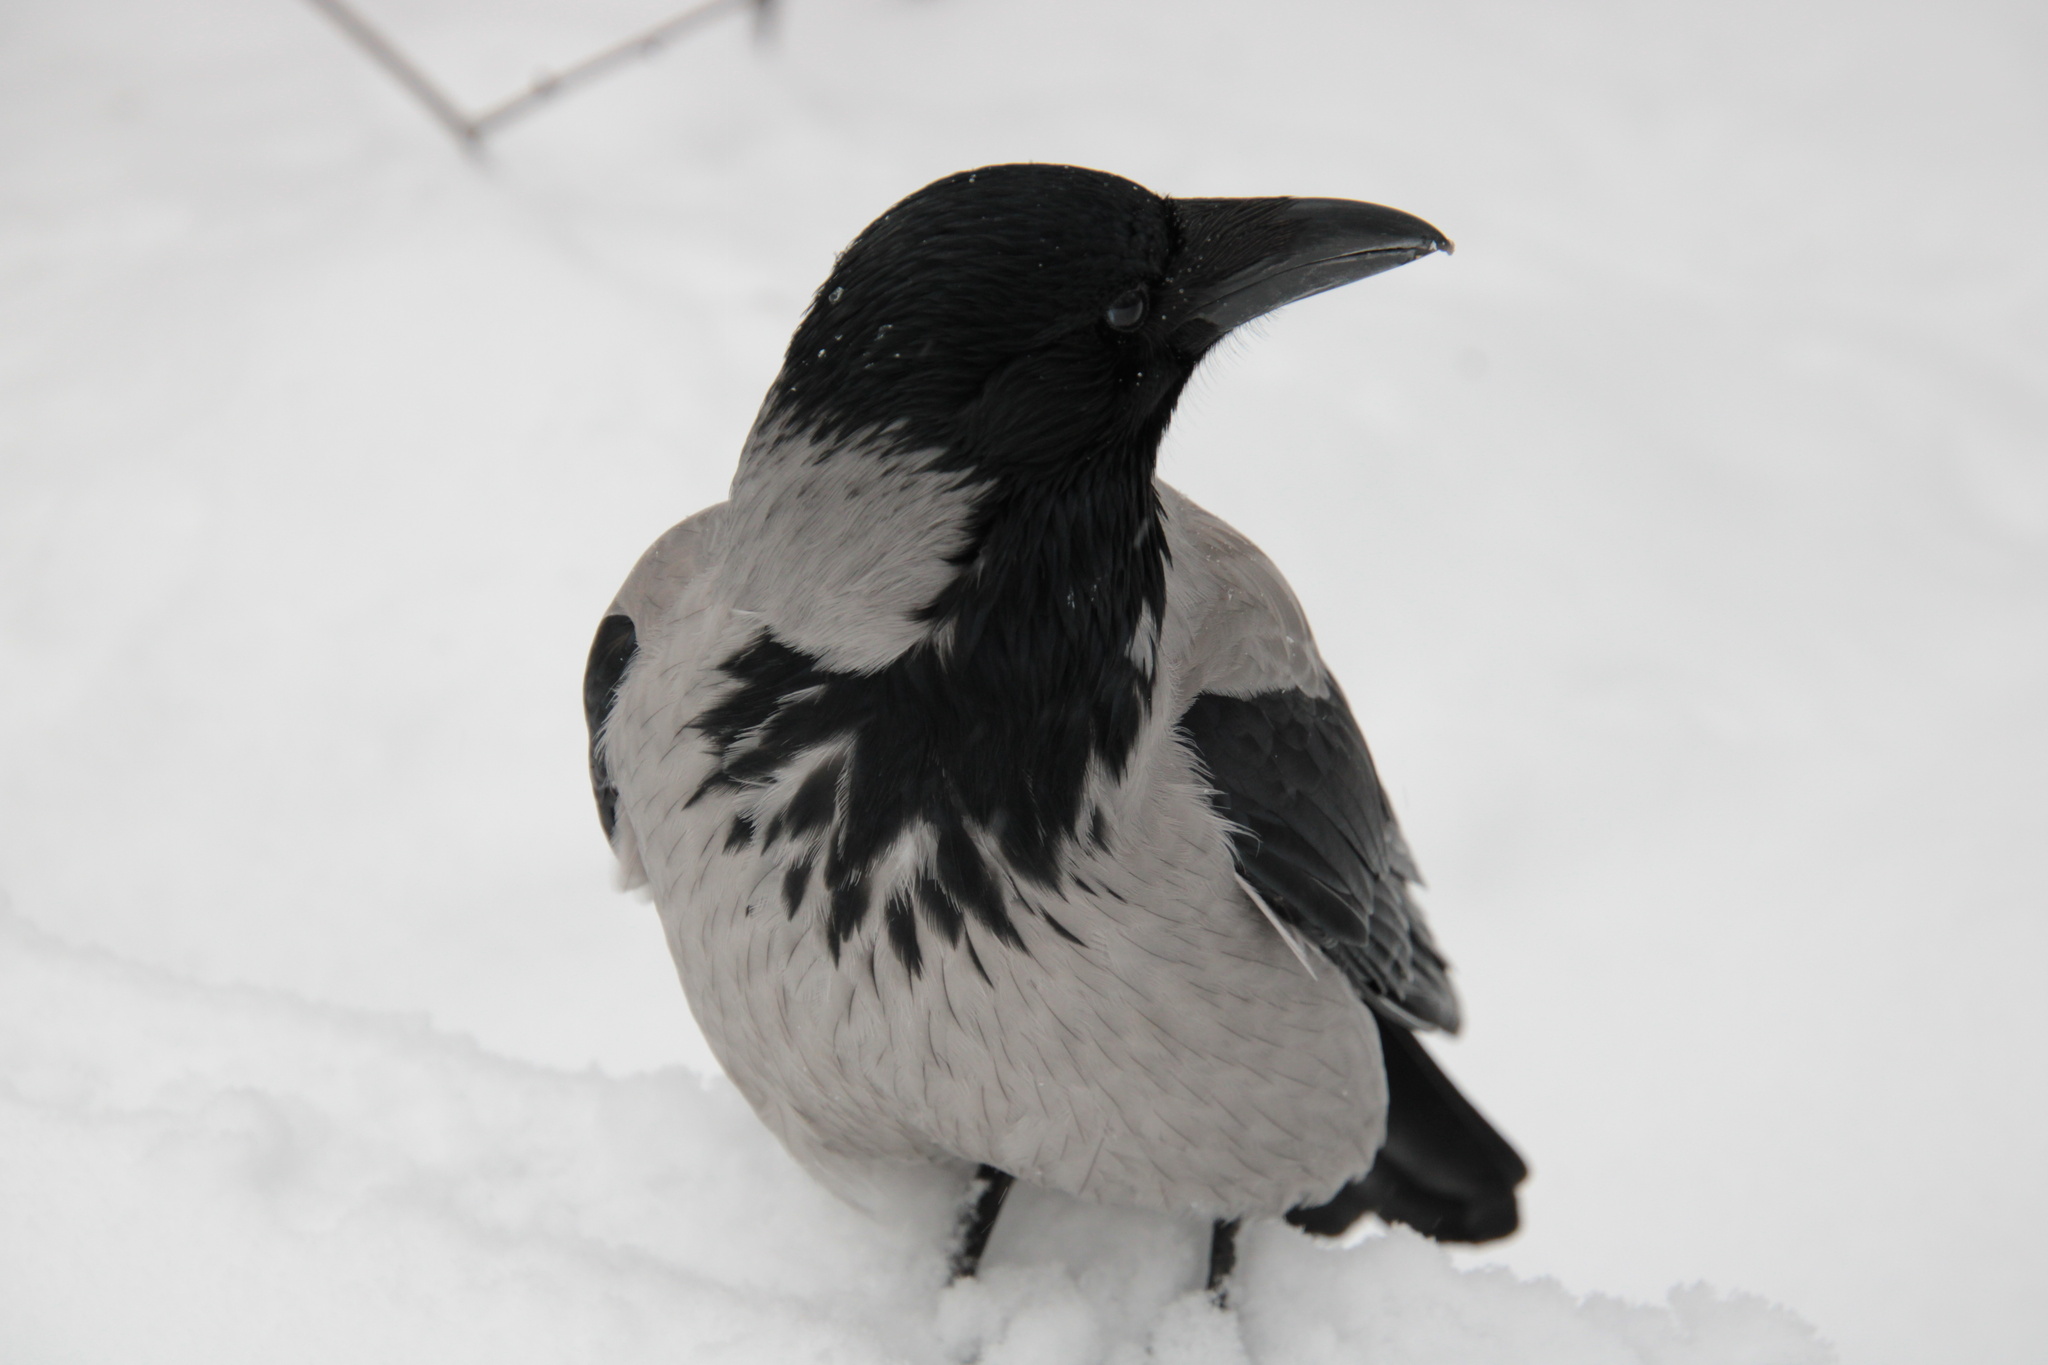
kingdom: Animalia
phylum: Chordata
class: Aves
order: Passeriformes
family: Corvidae
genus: Corvus
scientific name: Corvus cornix
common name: Hooded crow
